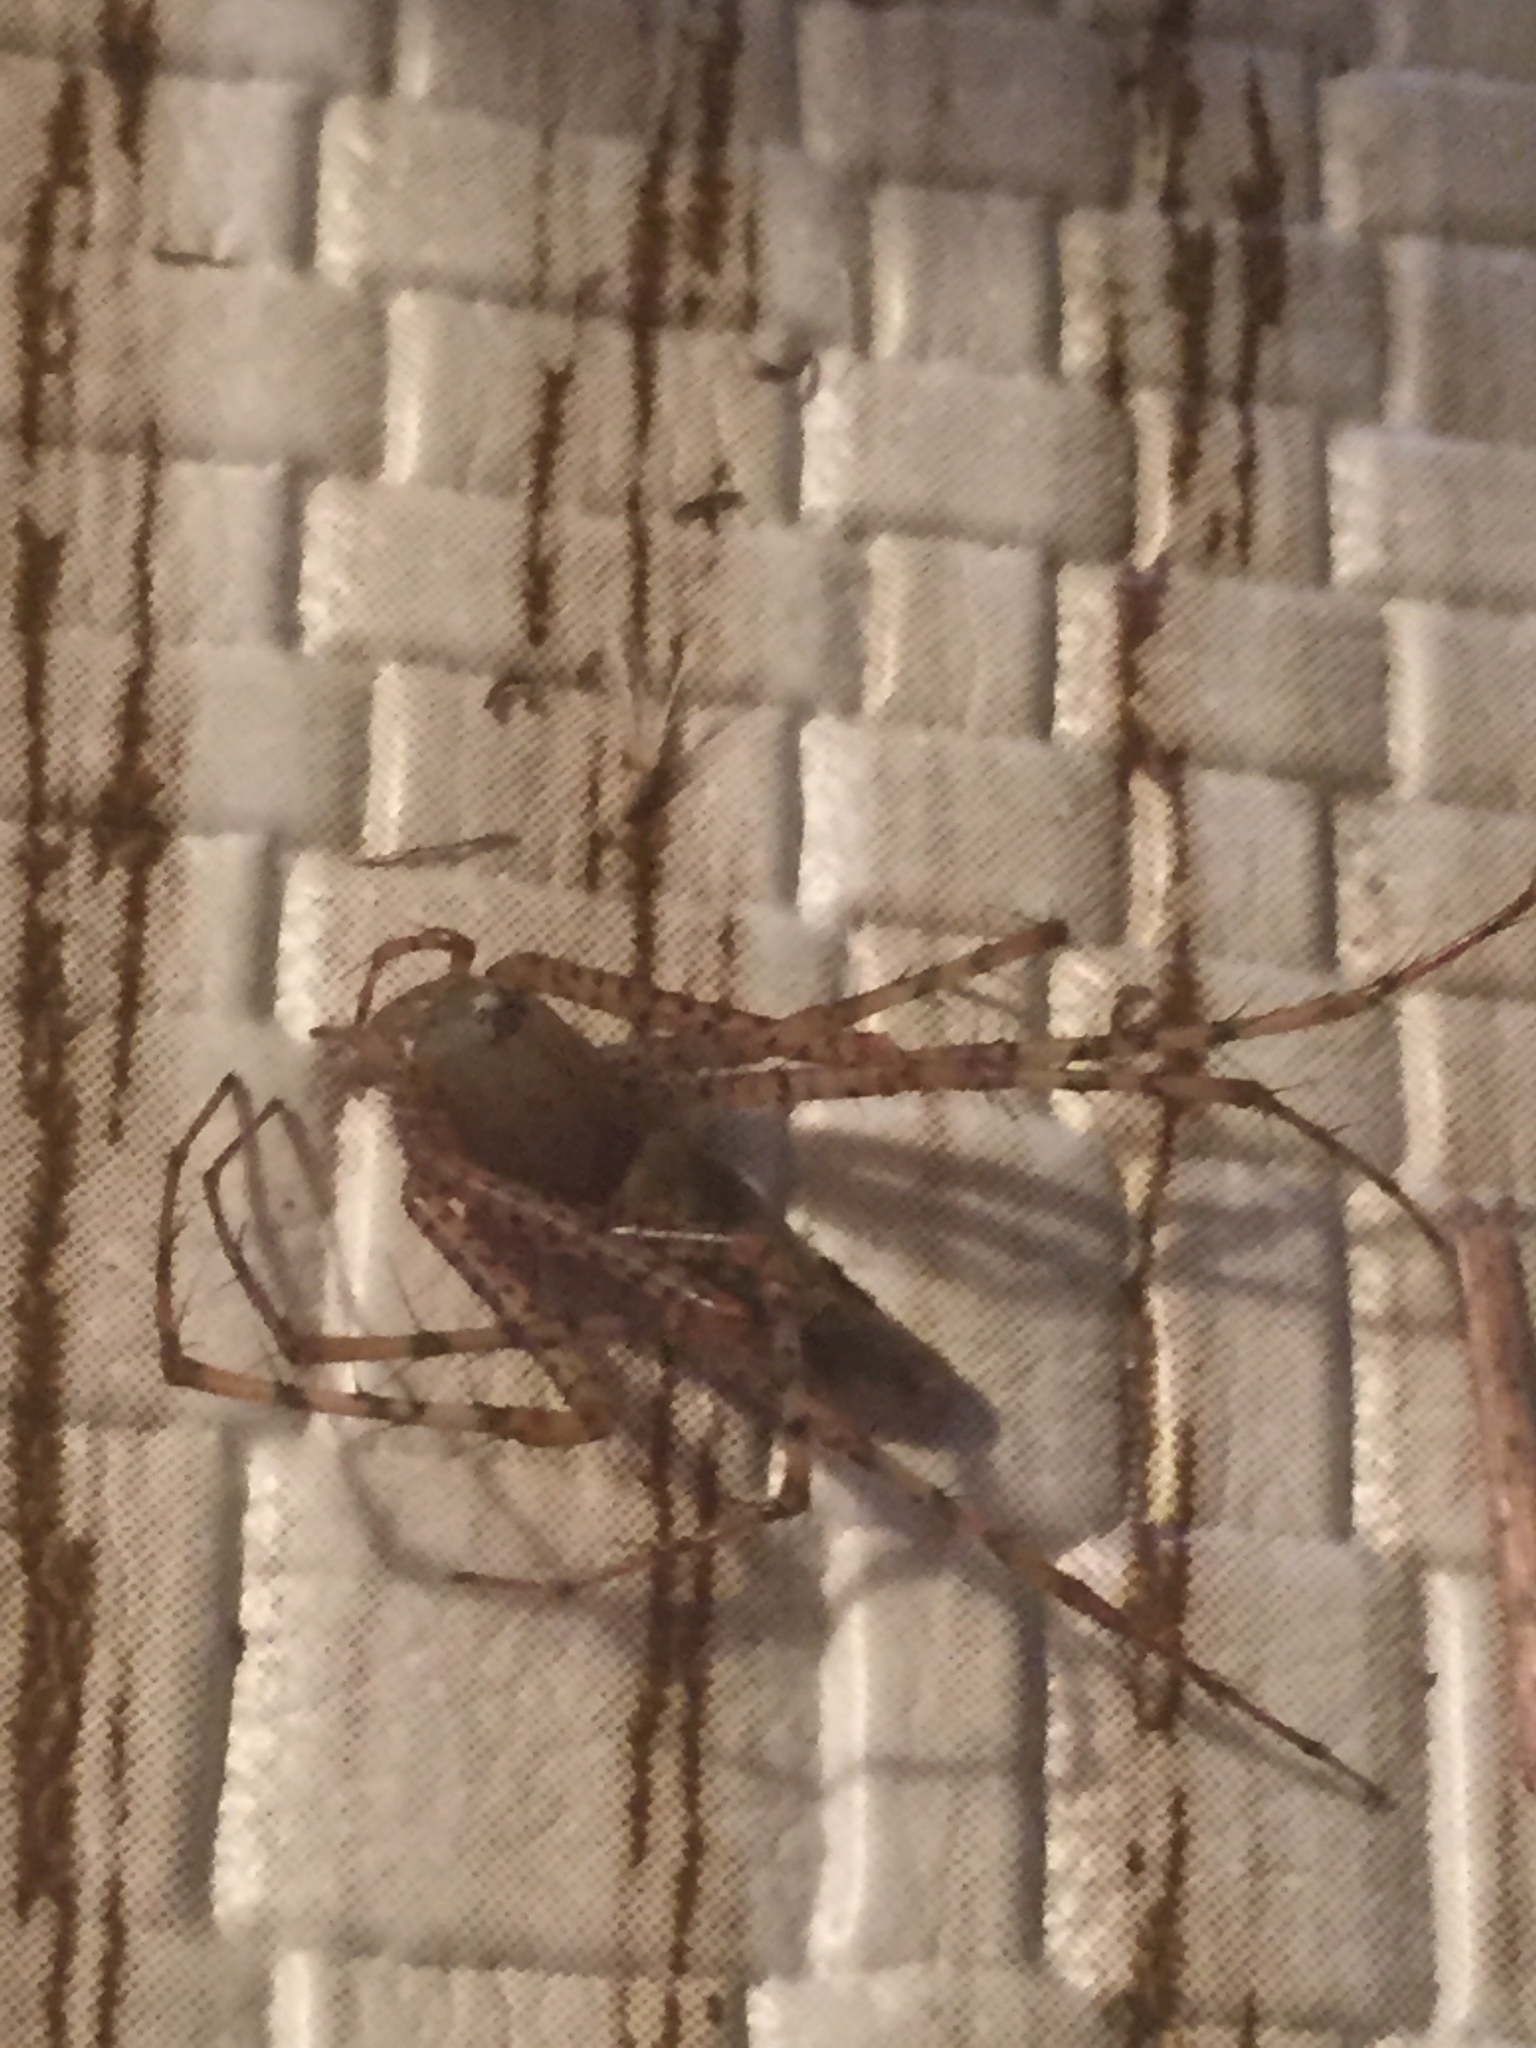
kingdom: Animalia
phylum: Arthropoda
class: Arachnida
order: Araneae
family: Oxyopidae
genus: Peucetia
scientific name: Peucetia viridans
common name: Lynx spiders
